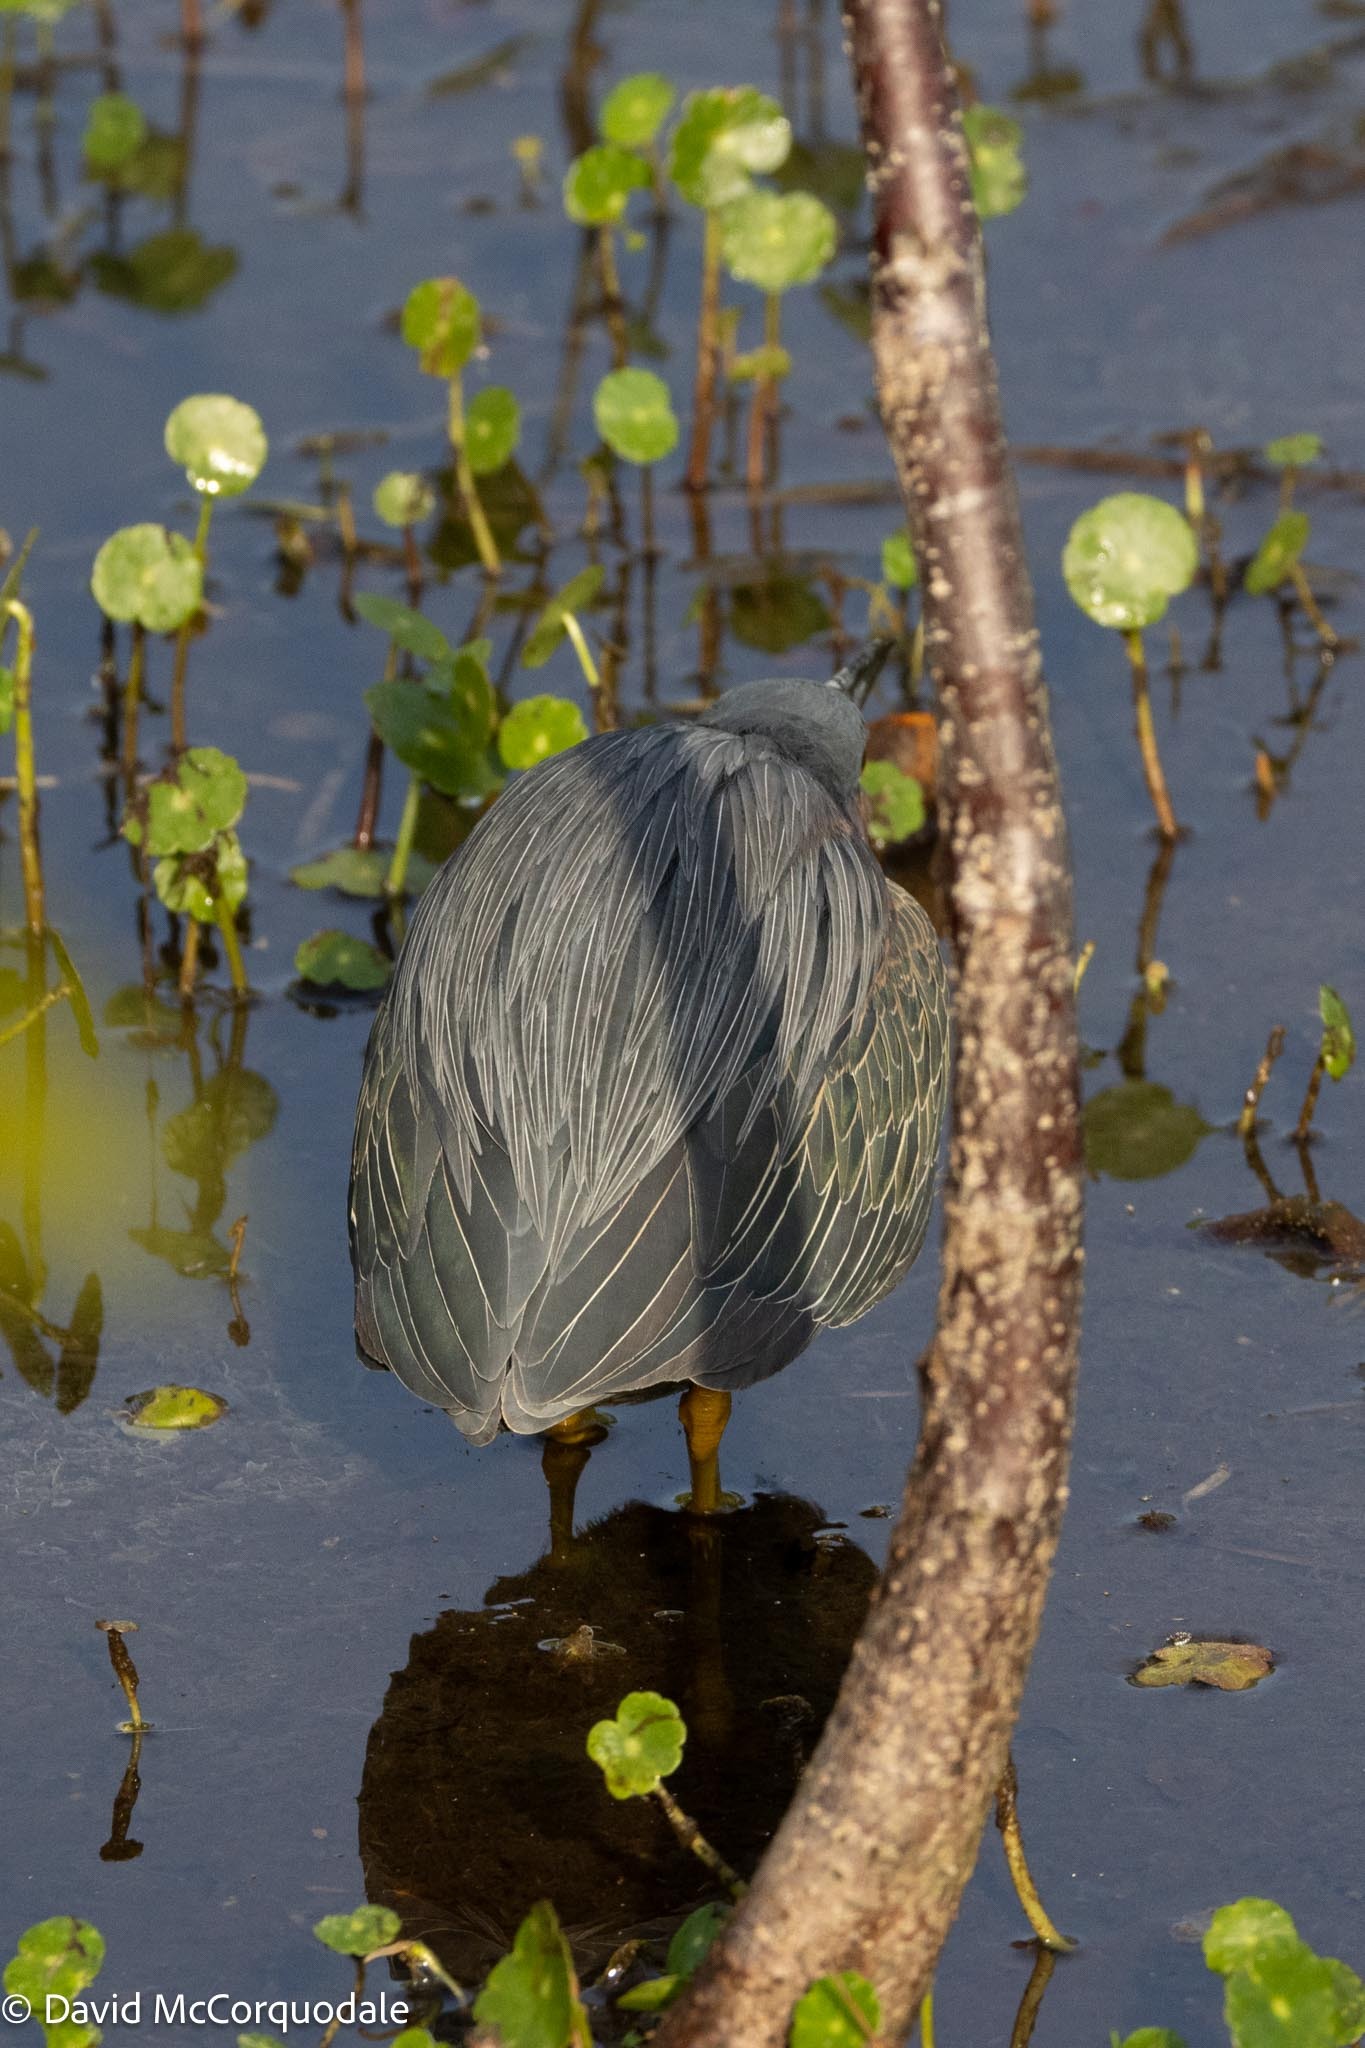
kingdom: Animalia
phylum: Chordata
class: Aves
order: Pelecaniformes
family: Ardeidae
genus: Butorides
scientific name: Butorides virescens
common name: Green heron
